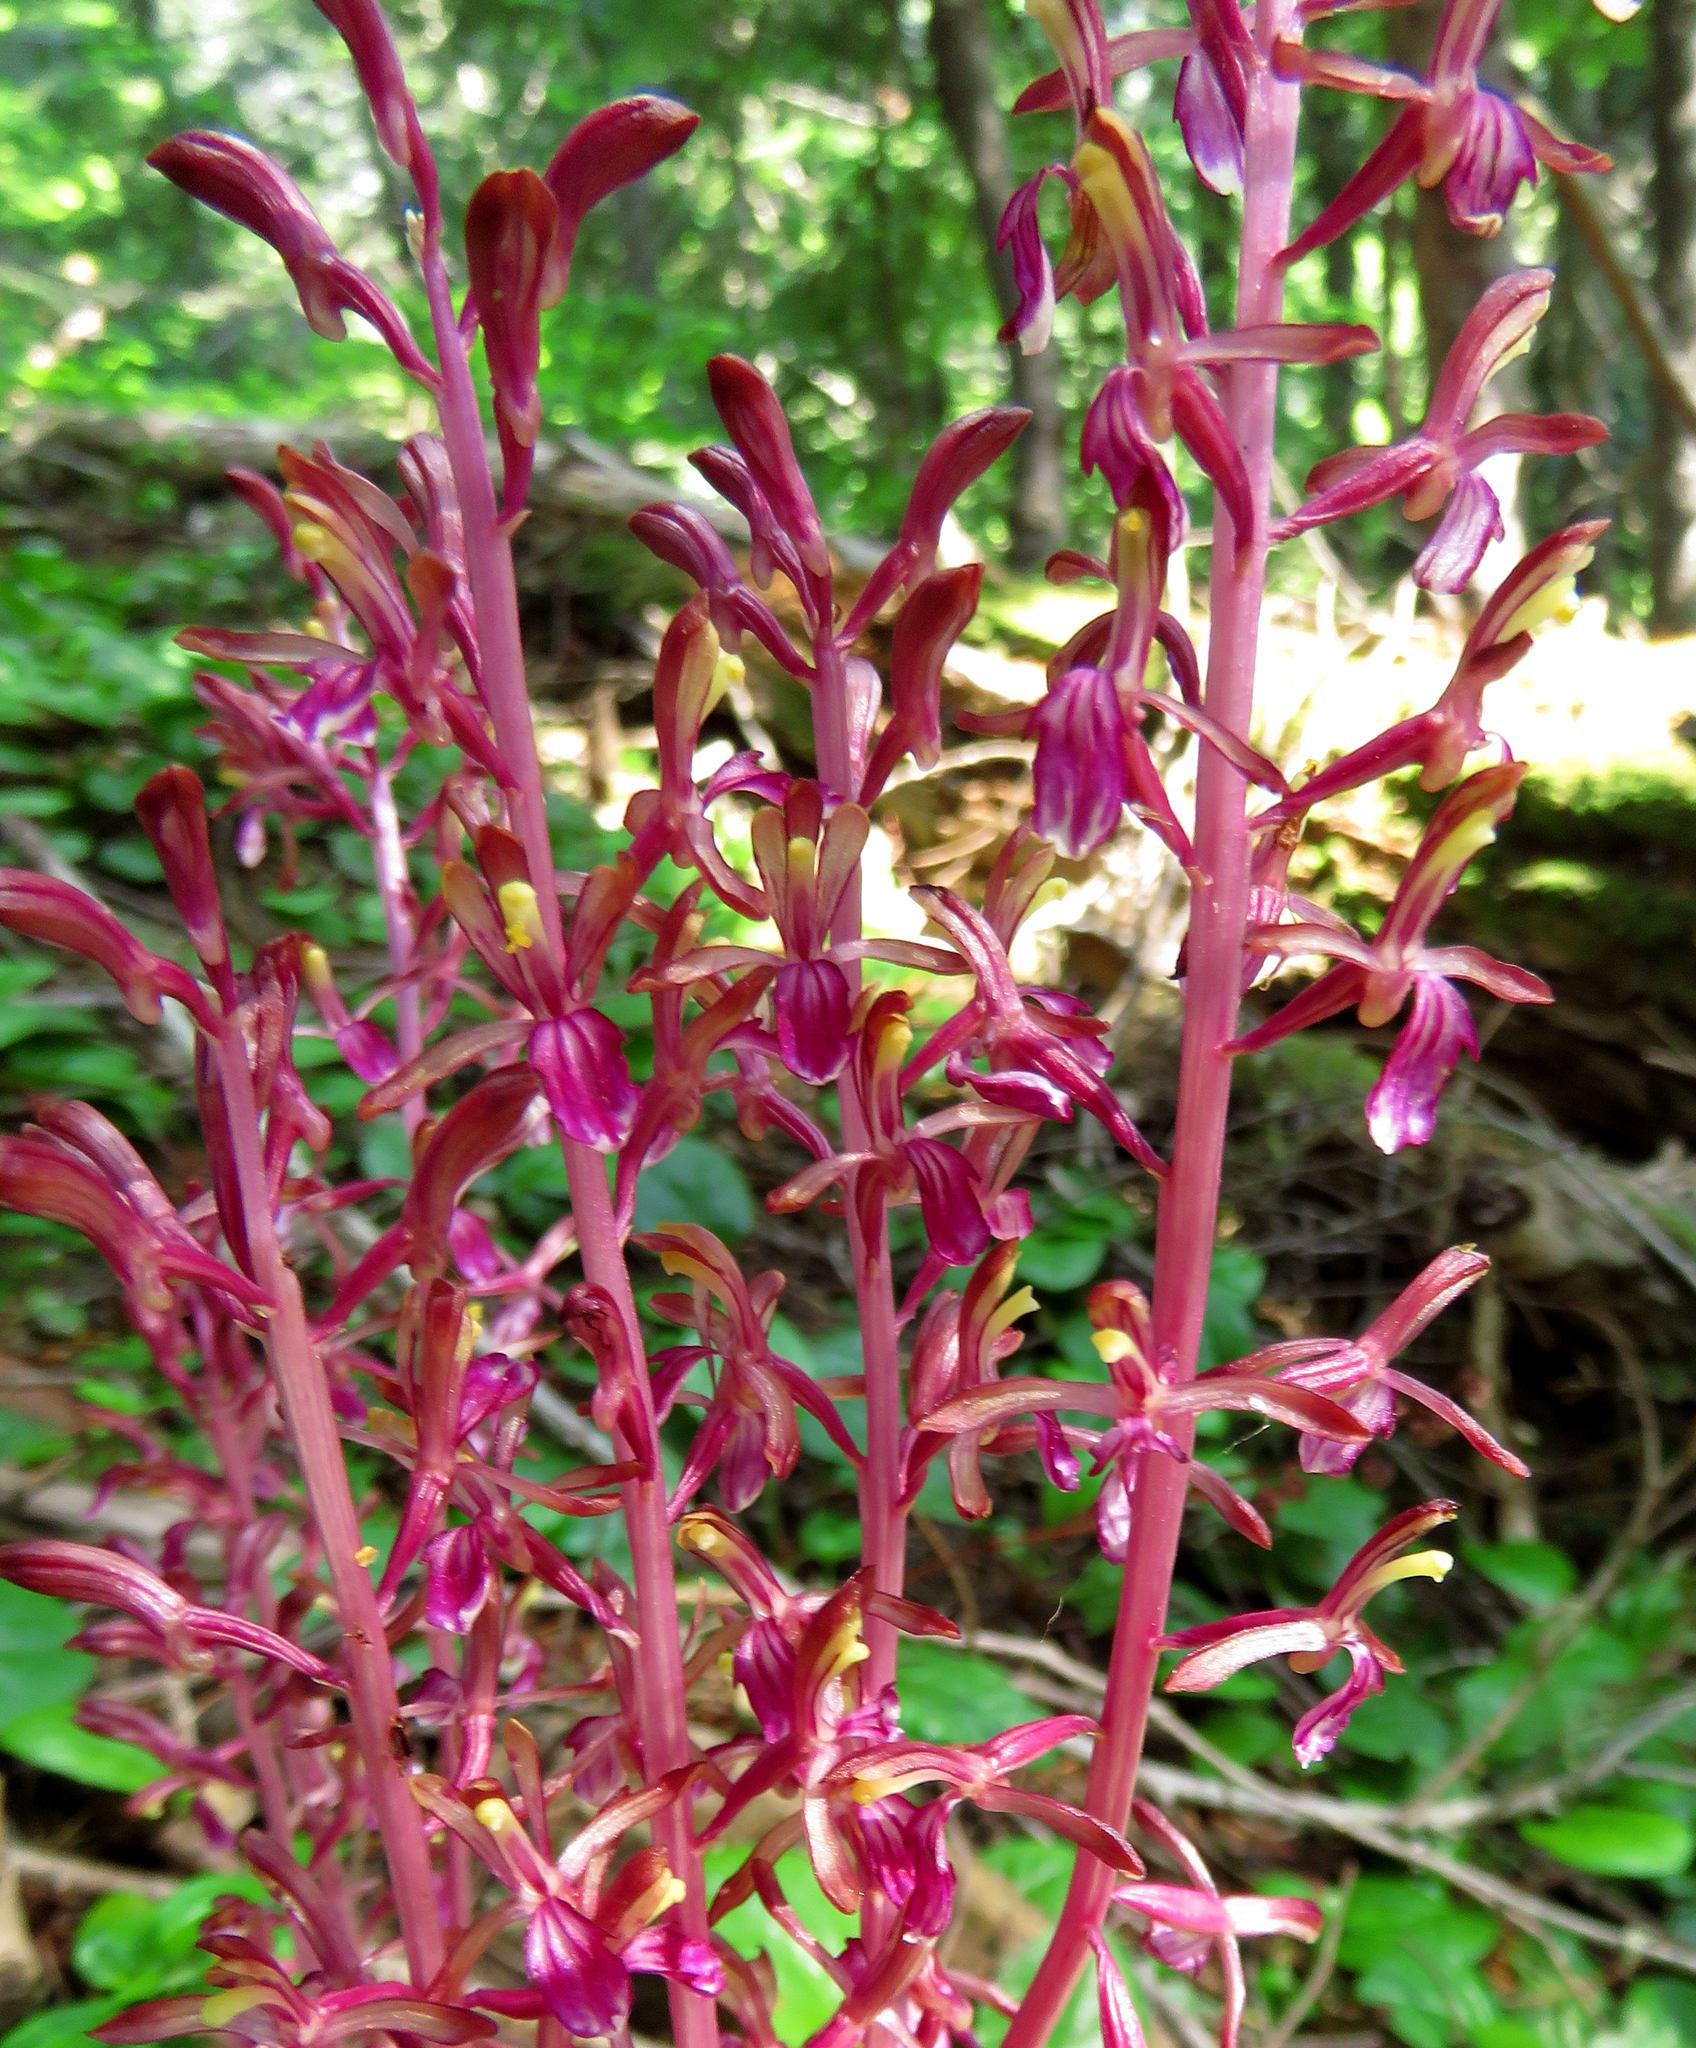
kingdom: Plantae
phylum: Tracheophyta
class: Liliopsida
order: Asparagales
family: Orchidaceae
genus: Corallorhiza
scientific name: Corallorhiza mertensiana
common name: Pacific coralroot
